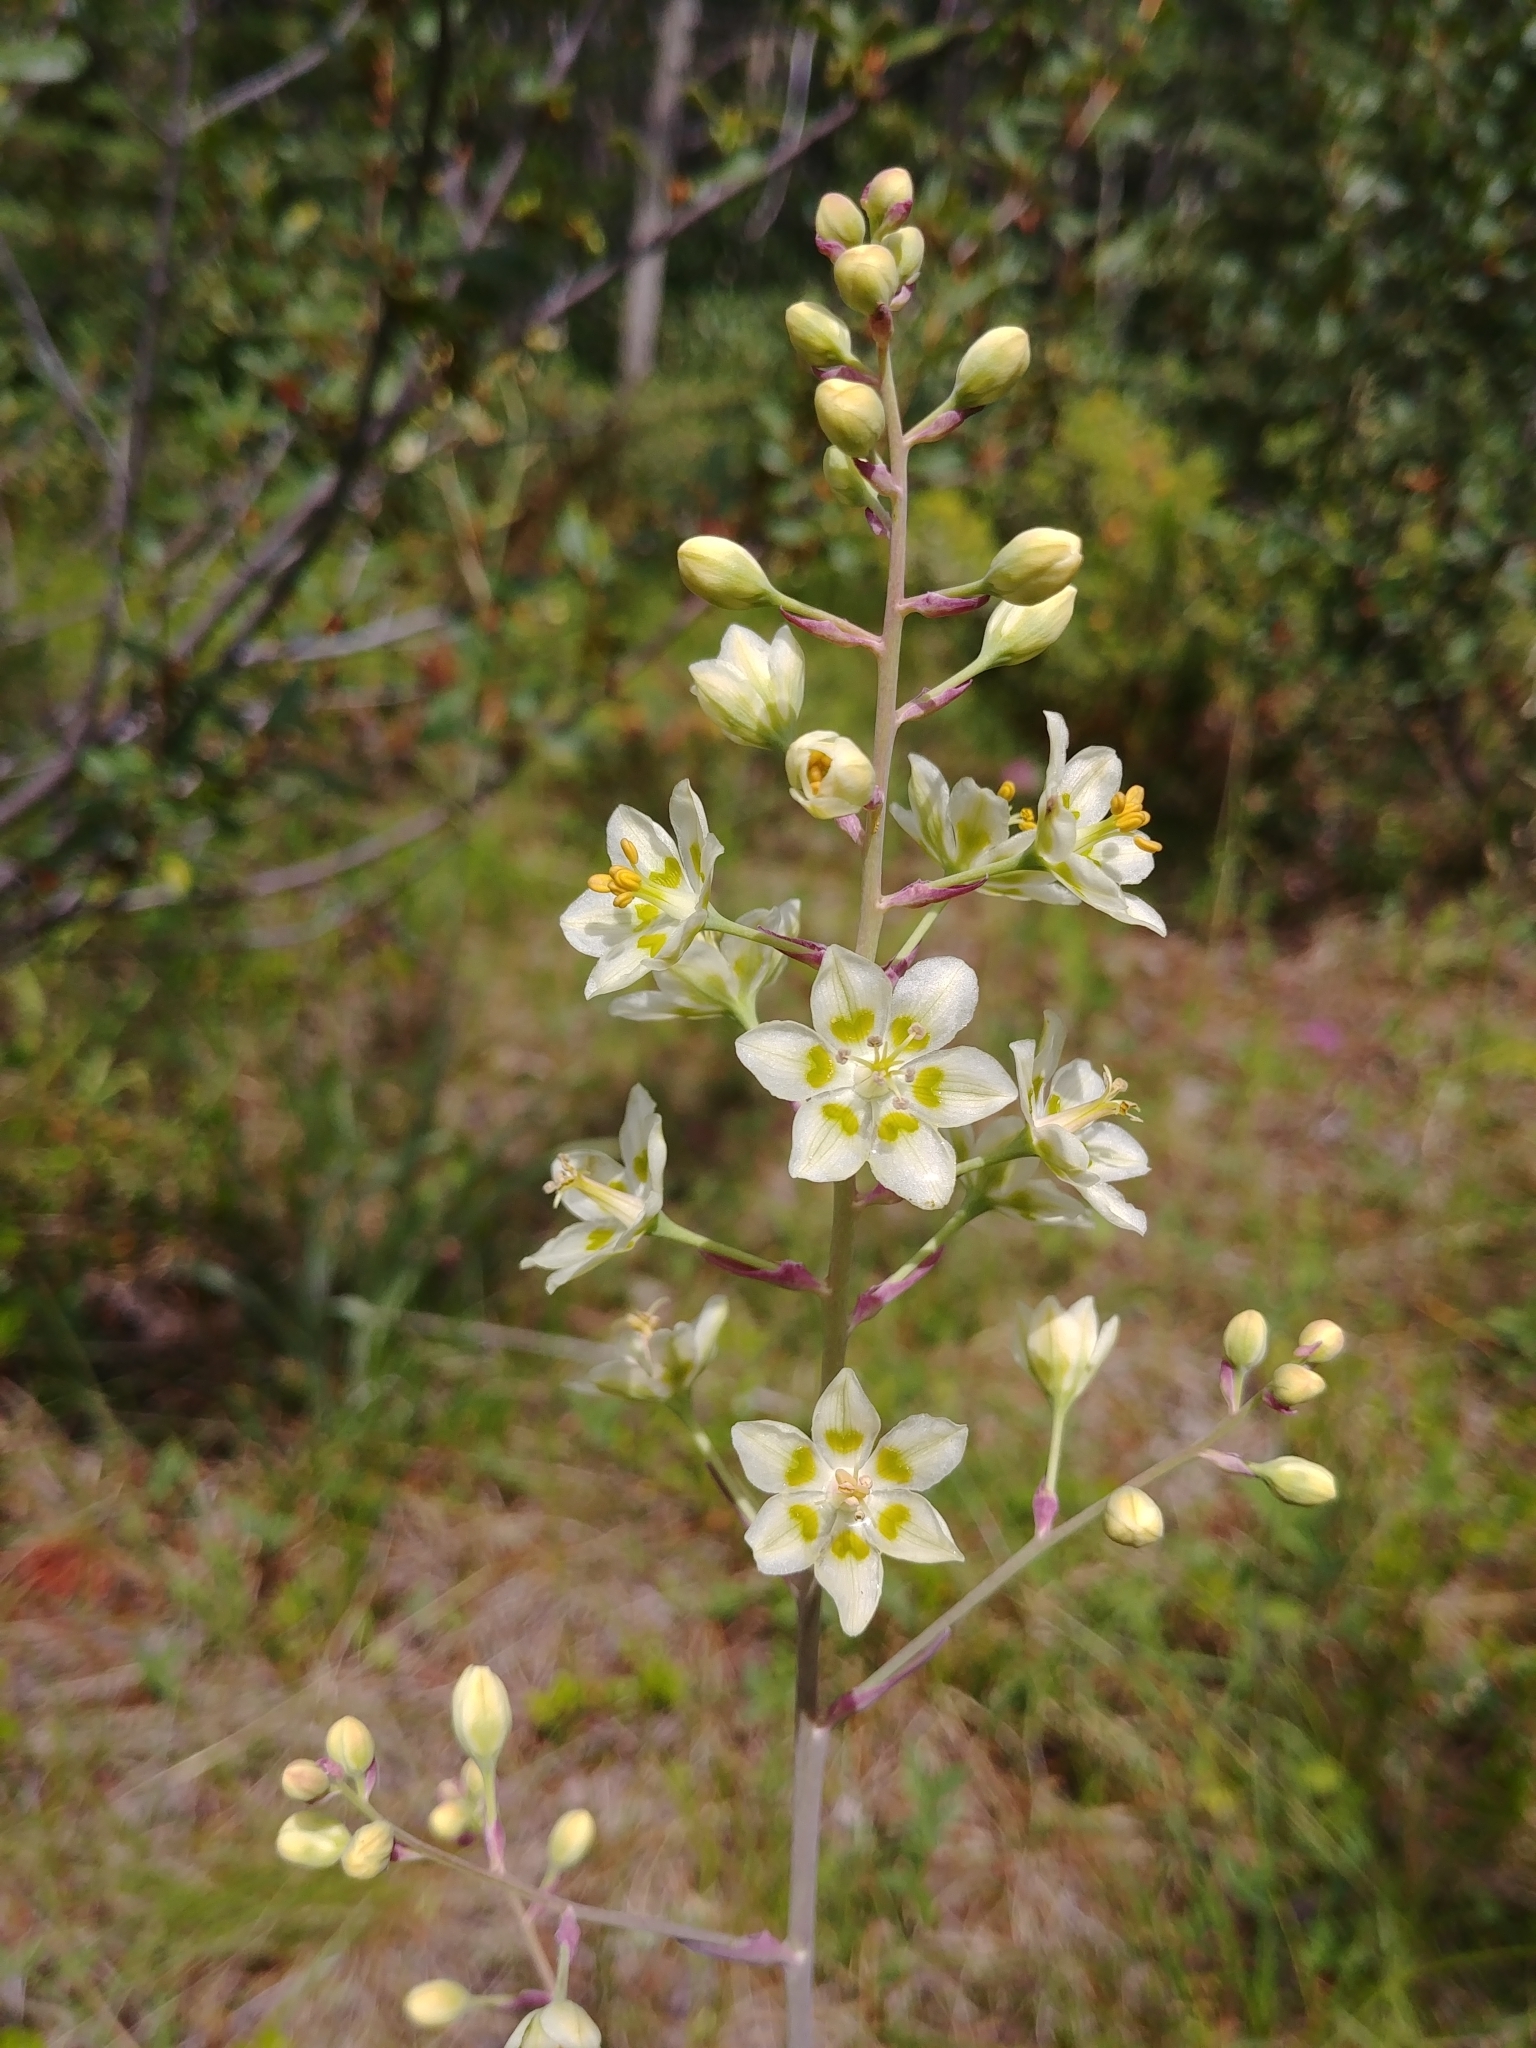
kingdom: Plantae
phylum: Tracheophyta
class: Liliopsida
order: Liliales
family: Melanthiaceae
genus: Anticlea
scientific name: Anticlea elegans
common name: Mountain death camas
